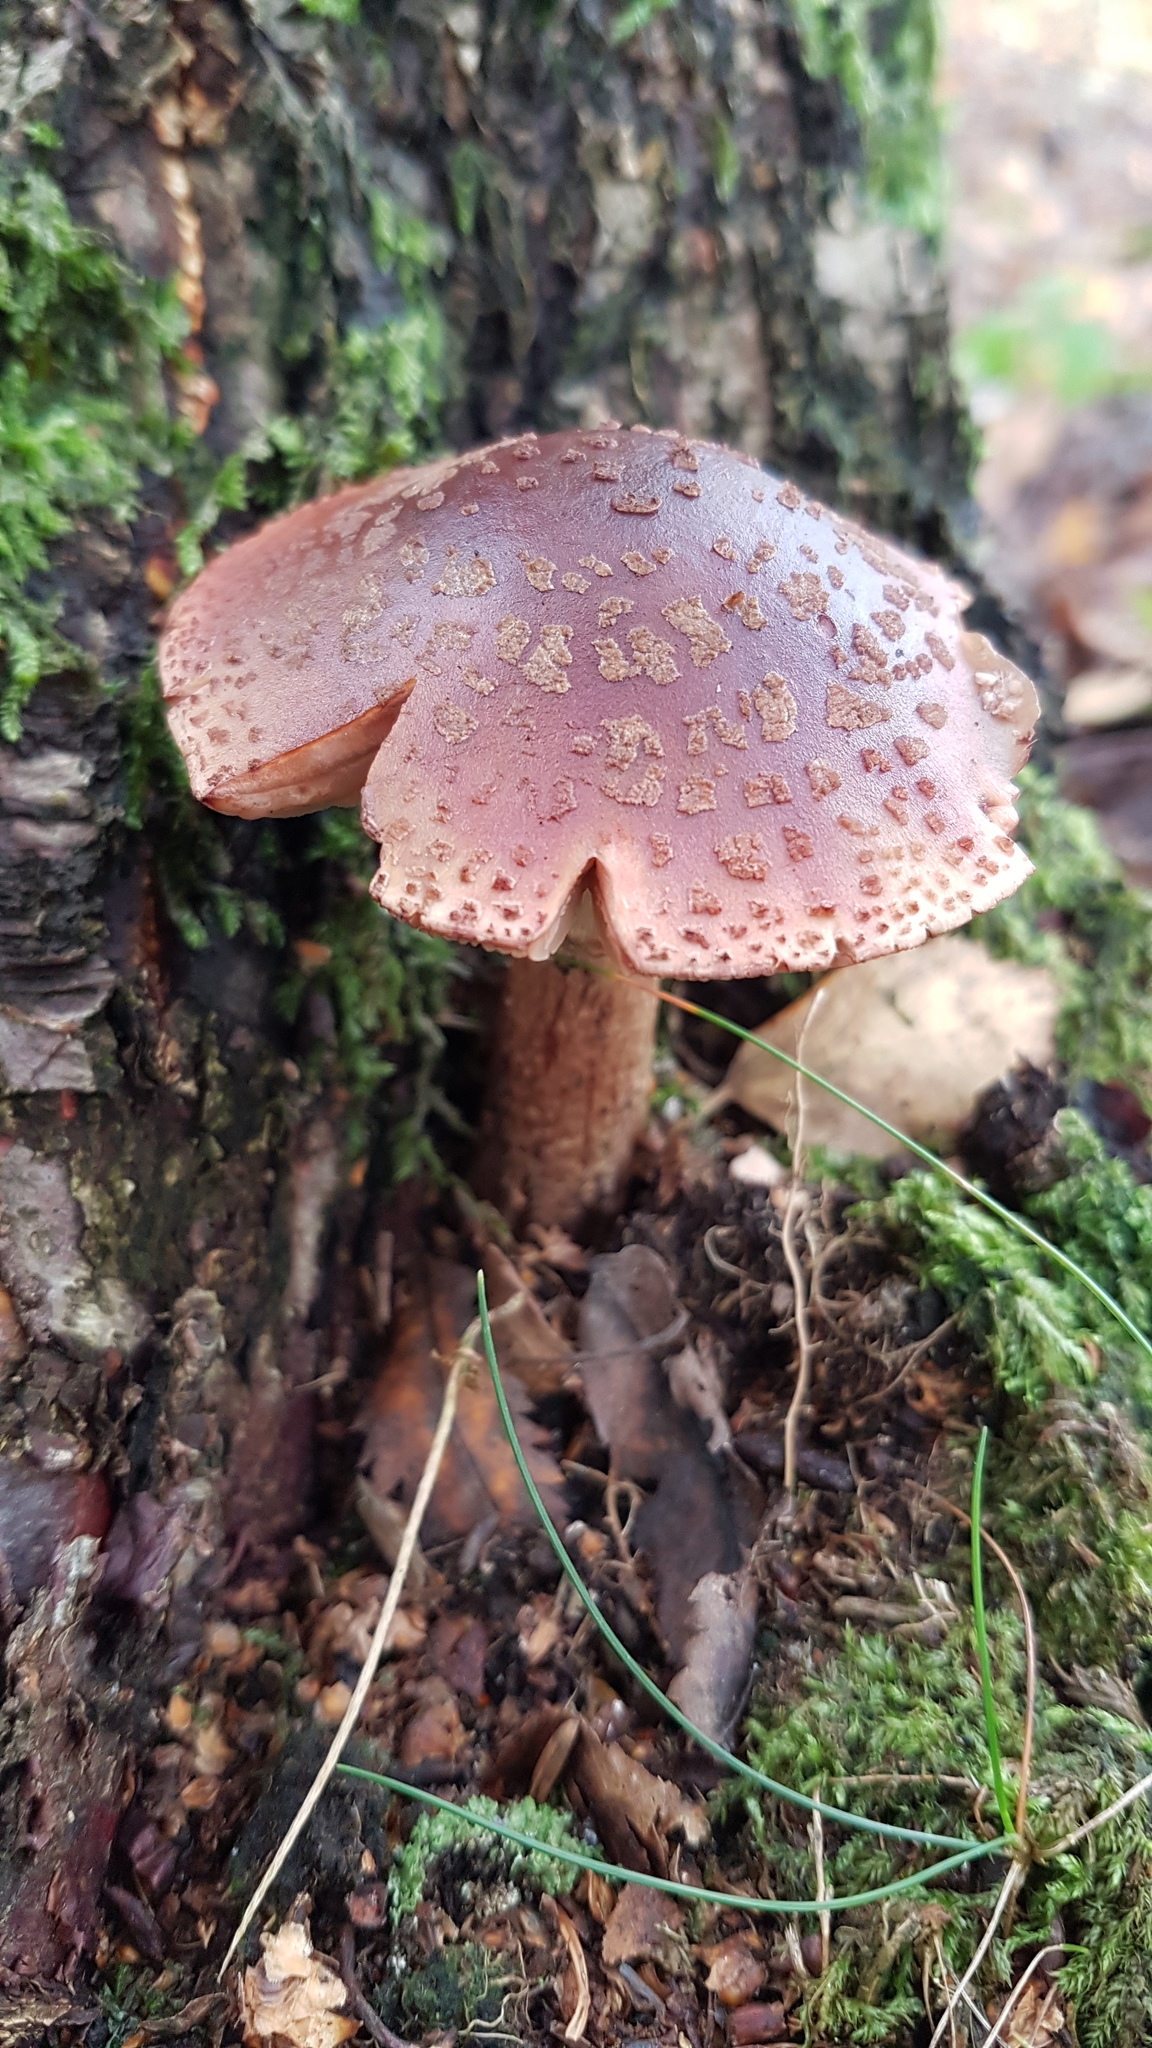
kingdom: Fungi
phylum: Basidiomycota
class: Agaricomycetes
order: Agaricales
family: Amanitaceae
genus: Amanita
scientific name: Amanita rubescens
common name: Blusher
